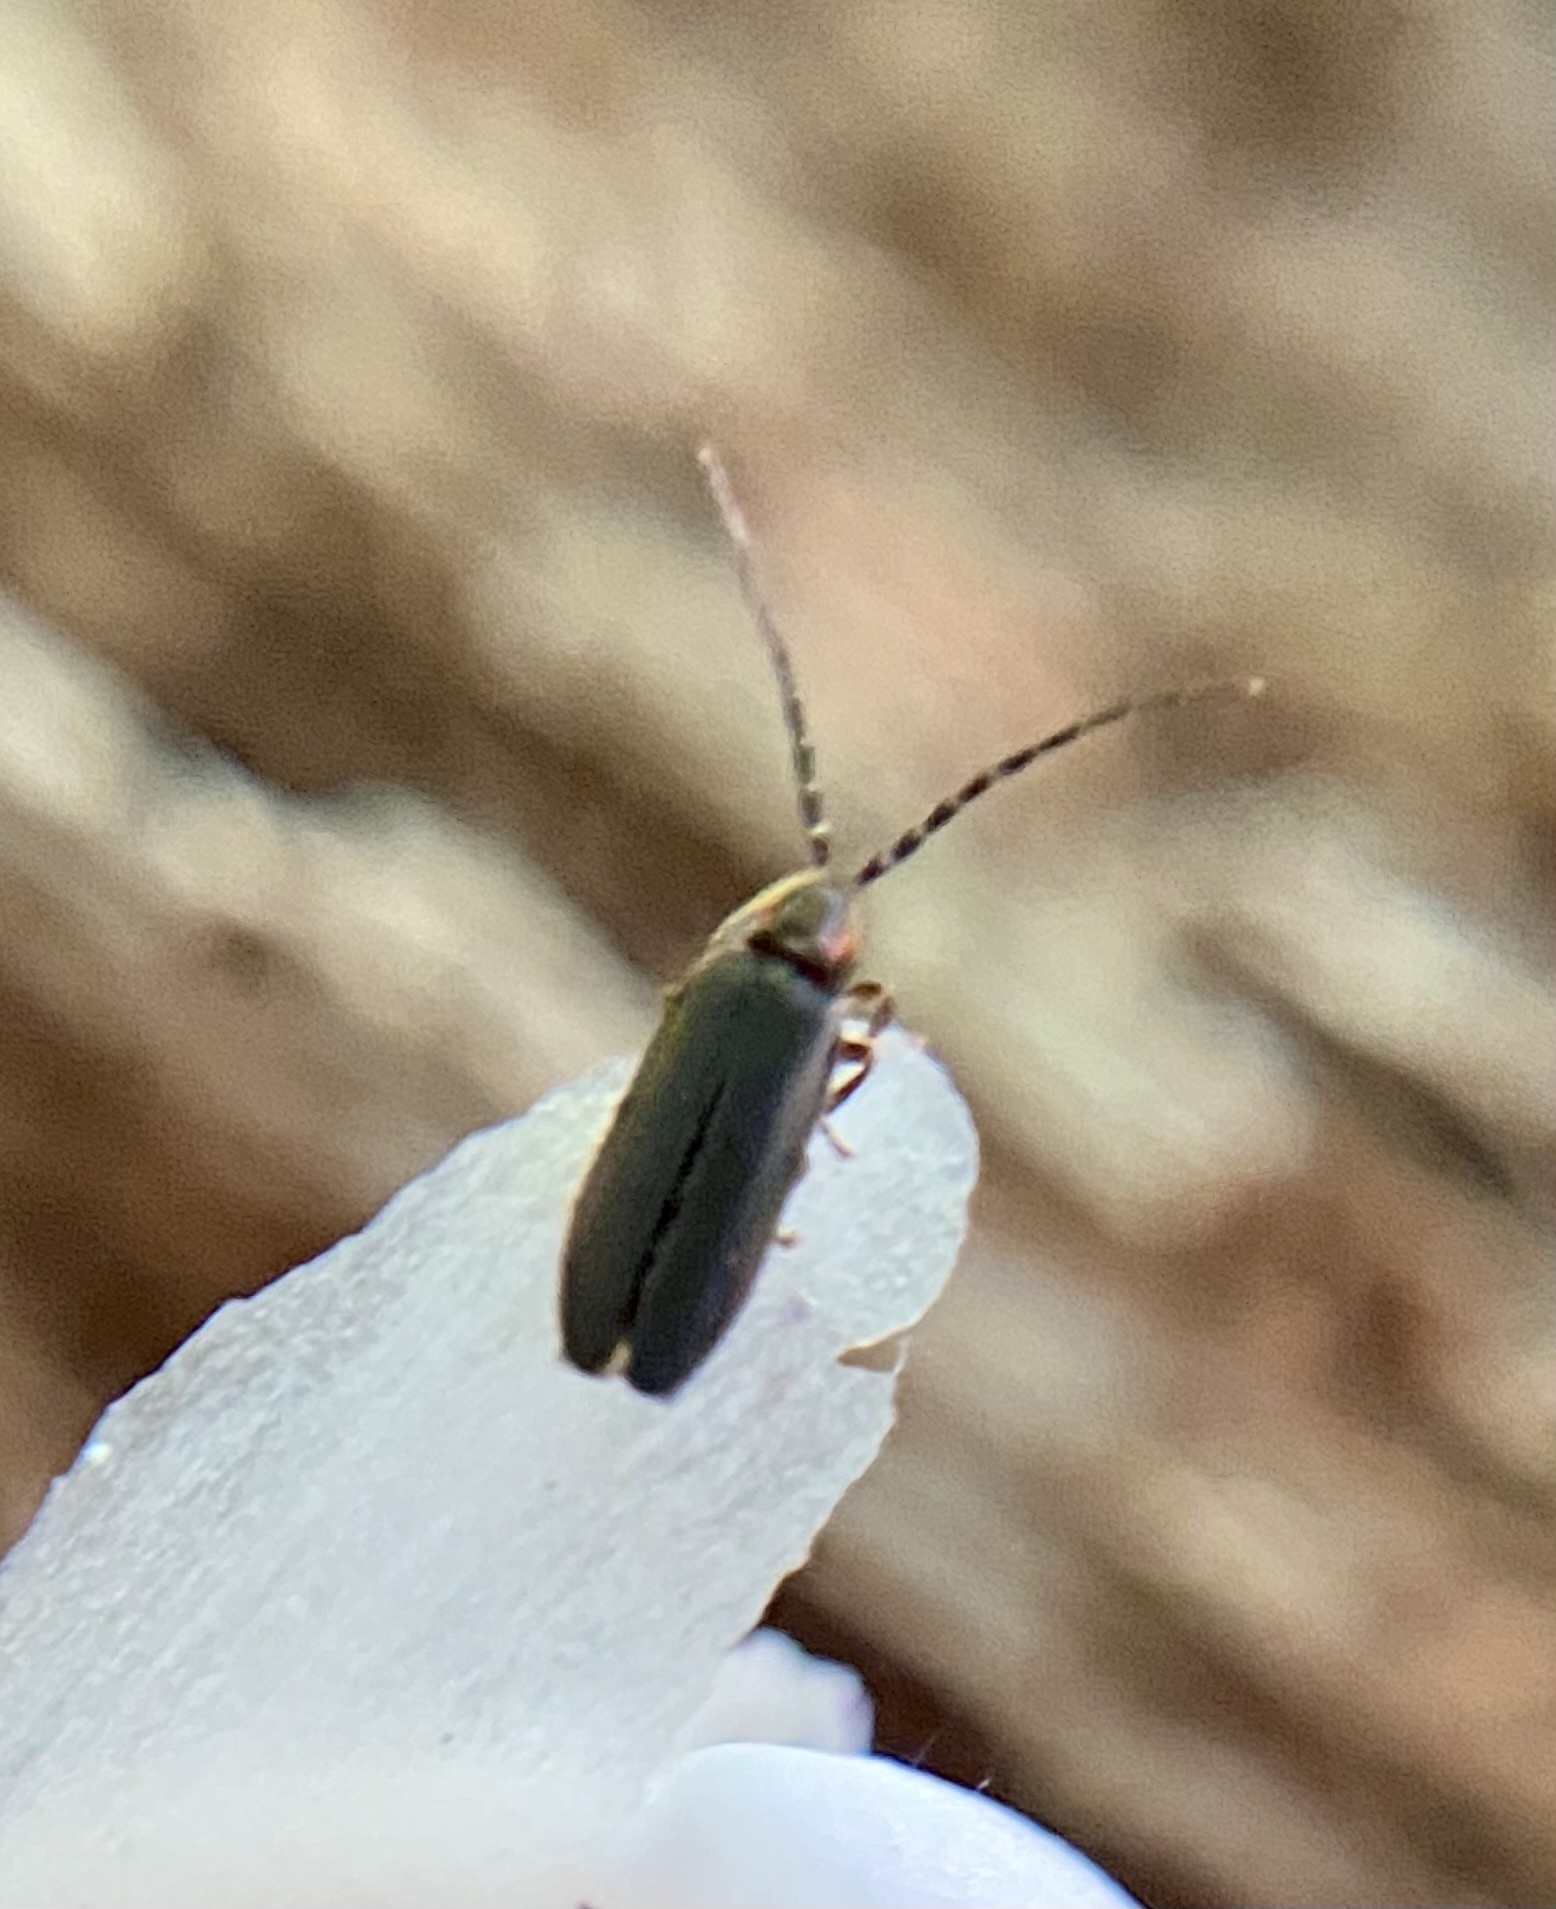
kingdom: Animalia
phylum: Arthropoda
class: Insecta
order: Coleoptera
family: Lampyridae
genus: Lucidota
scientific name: Lucidota punctata
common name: Dotted firefly
